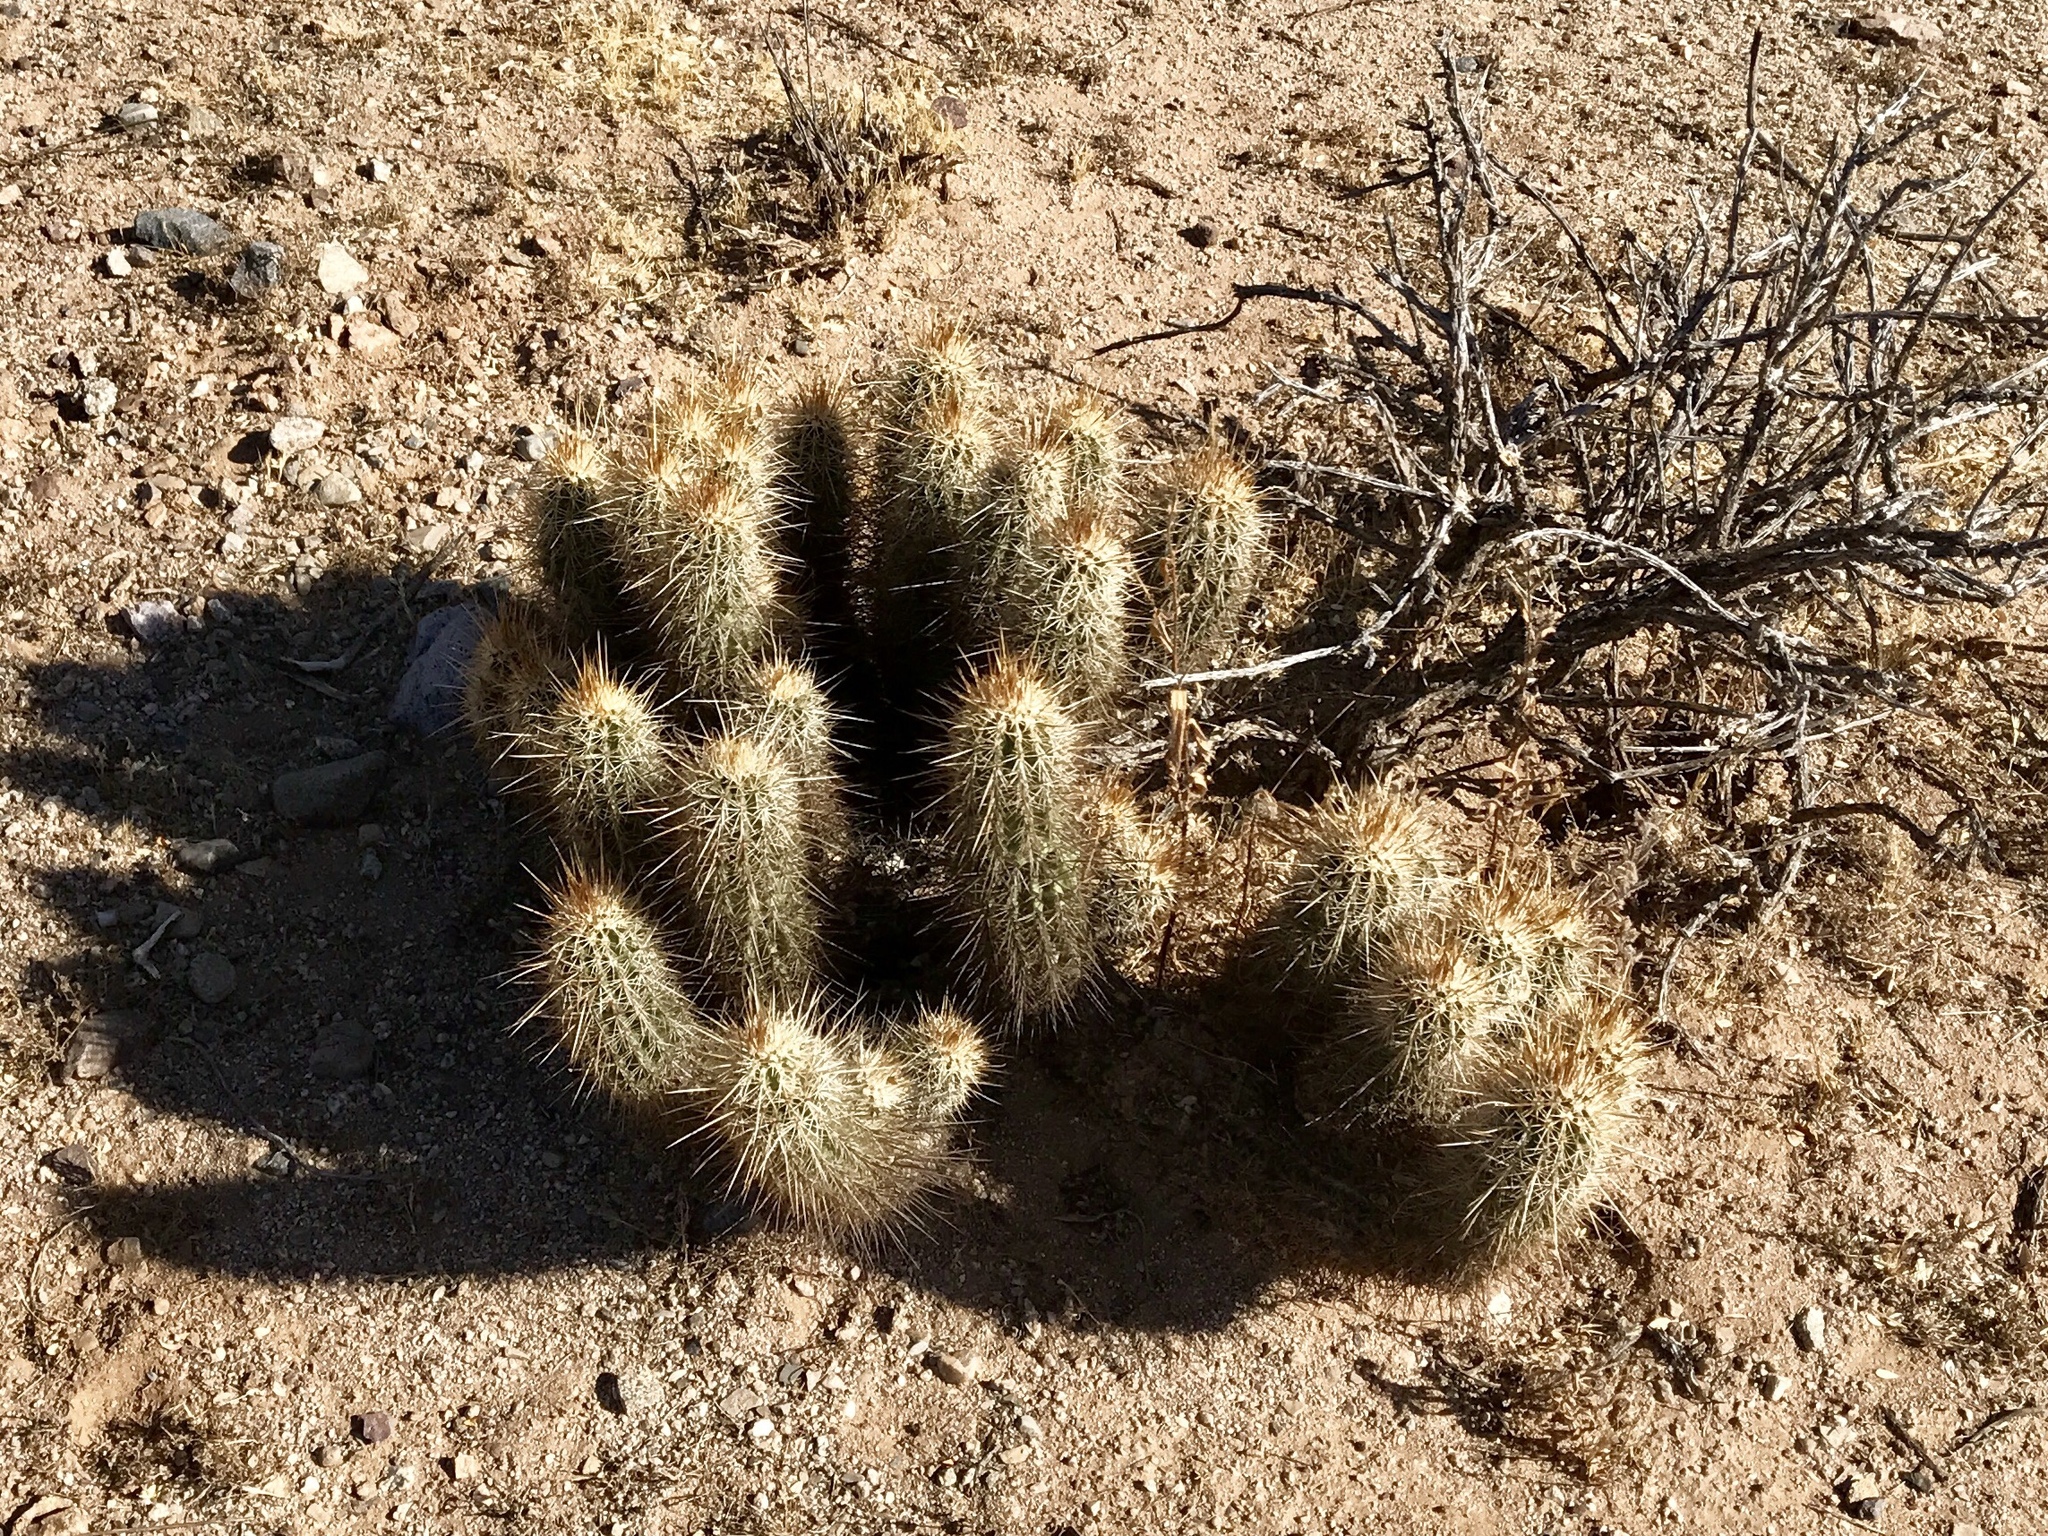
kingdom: Plantae
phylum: Tracheophyta
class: Magnoliopsida
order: Caryophyllales
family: Cactaceae
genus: Echinocereus
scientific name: Echinocereus engelmannii
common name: Engelmann's hedgehog cactus
